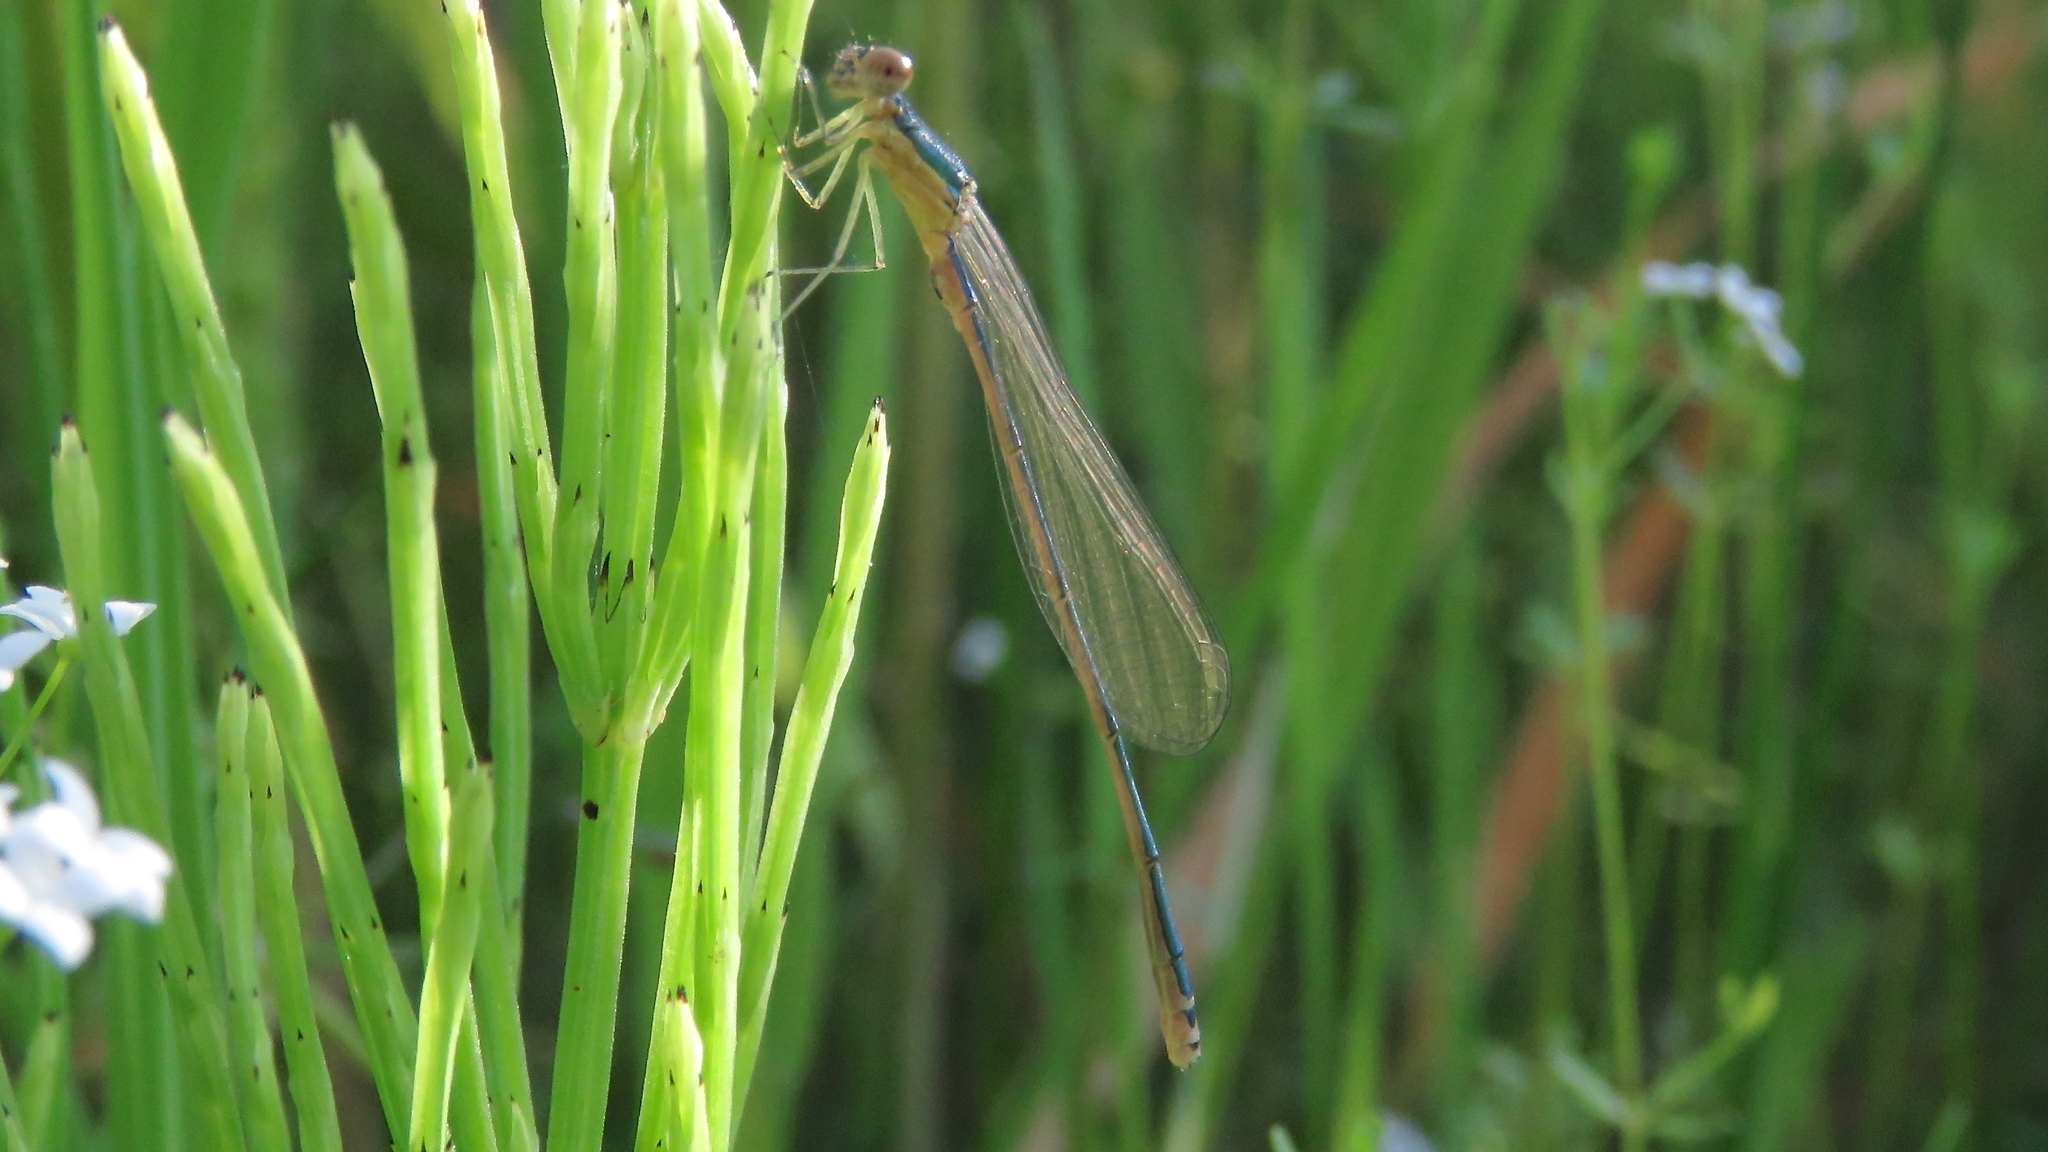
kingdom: Animalia
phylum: Arthropoda
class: Insecta
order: Odonata
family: Coenagrionidae
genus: Nehalennia
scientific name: Nehalennia irene
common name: Sedge sprite
